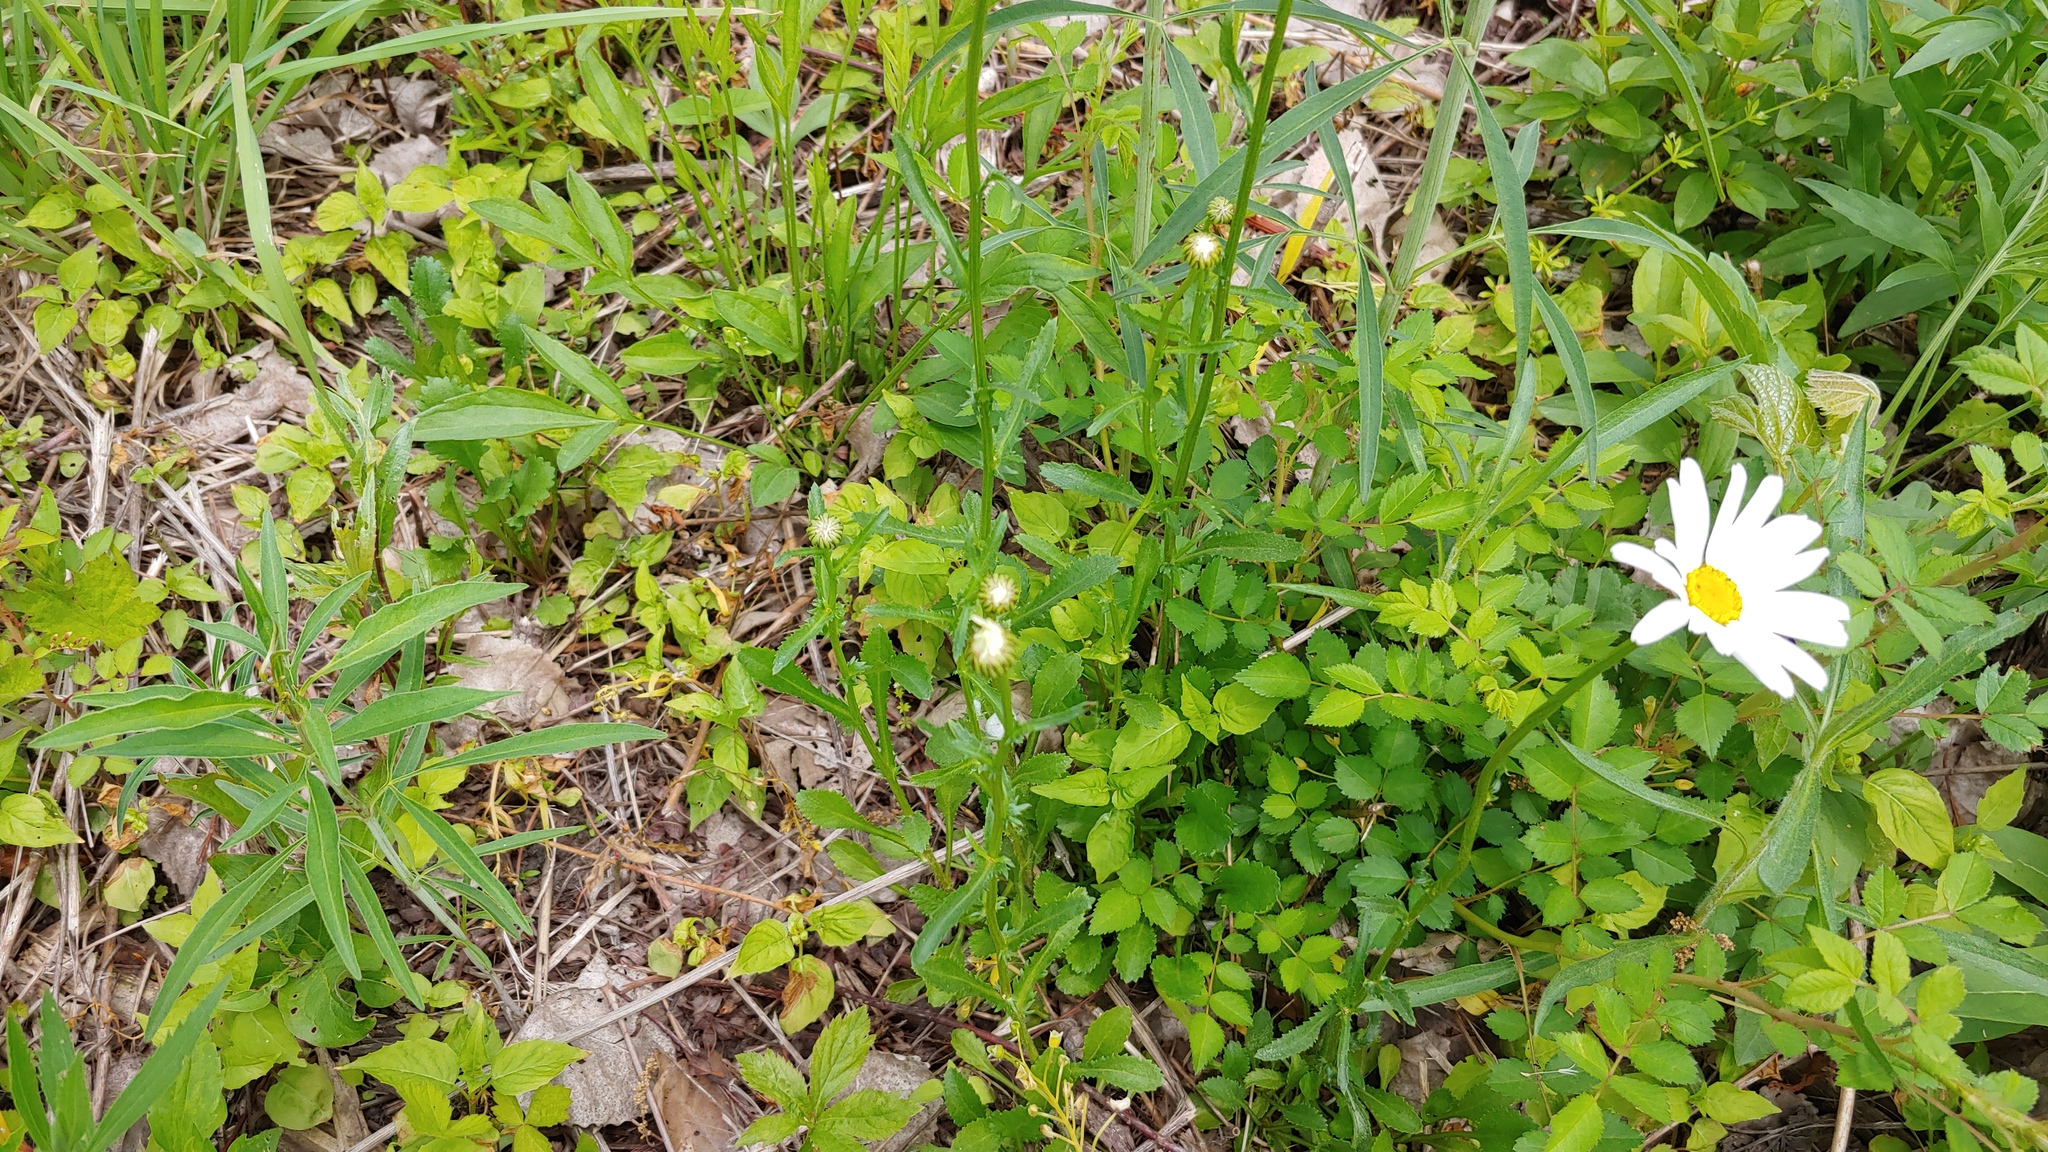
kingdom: Plantae
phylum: Tracheophyta
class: Magnoliopsida
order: Asterales
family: Asteraceae
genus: Leucanthemum
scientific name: Leucanthemum vulgare
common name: Oxeye daisy
